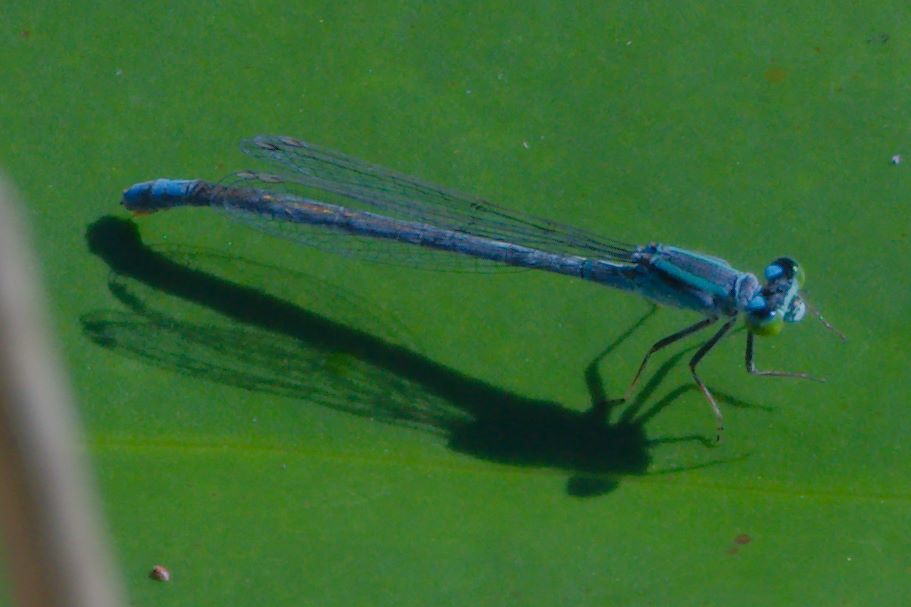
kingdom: Animalia
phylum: Arthropoda
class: Insecta
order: Odonata
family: Coenagrionidae
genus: Ischnura
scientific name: Ischnura kellicotti
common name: Lilypad forktail
